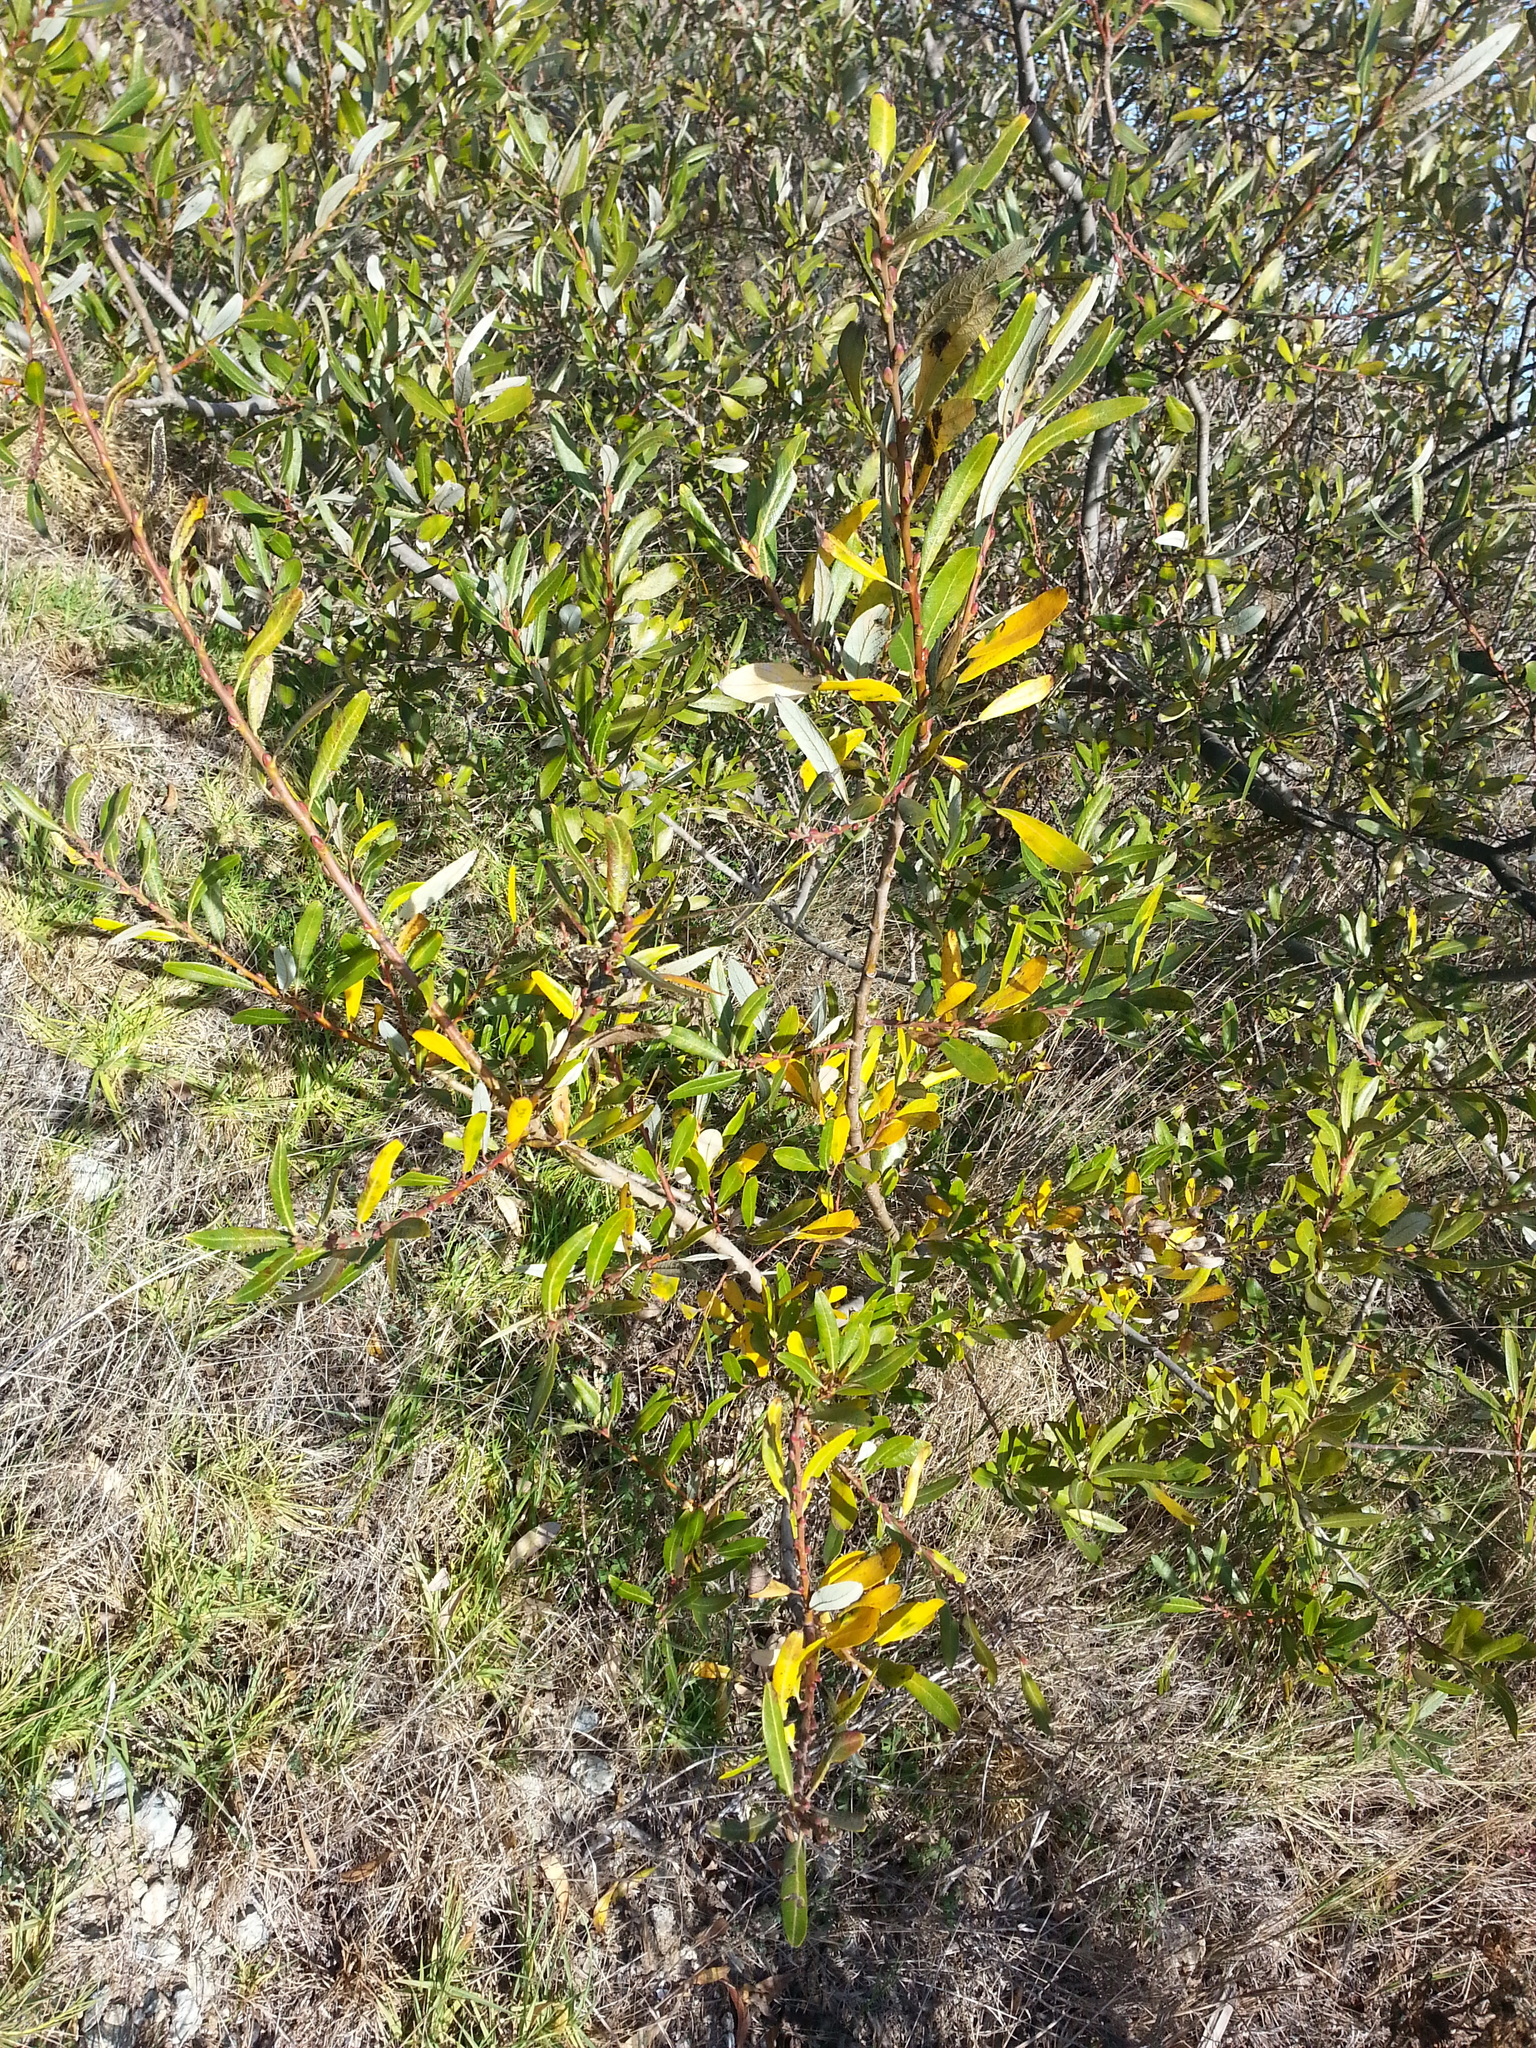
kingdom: Plantae
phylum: Tracheophyta
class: Magnoliopsida
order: Malpighiales
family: Salicaceae
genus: Salix
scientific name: Salix lasiolepis
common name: Arroyo willow
